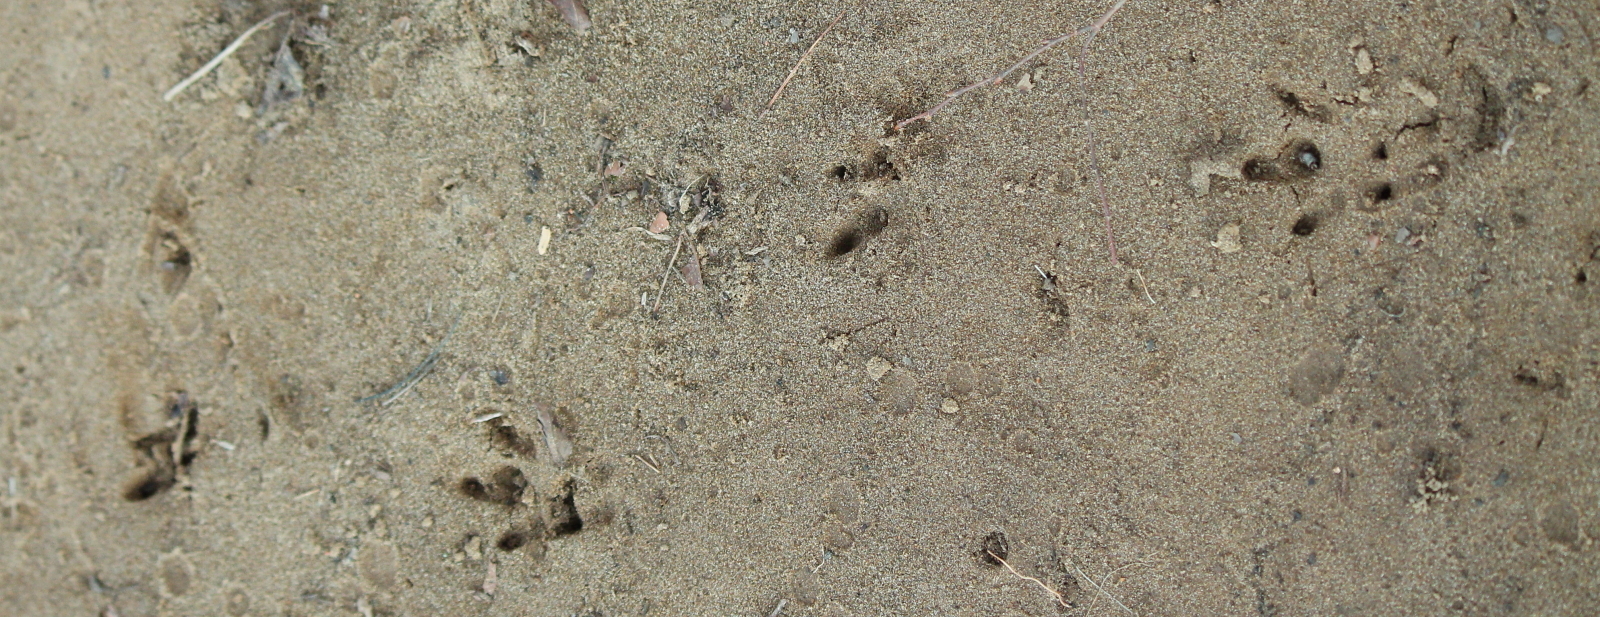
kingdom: Animalia
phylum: Chordata
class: Mammalia
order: Cingulata
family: Dasypodidae
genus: Dasypus
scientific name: Dasypus novemcinctus
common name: Nine-banded armadillo
